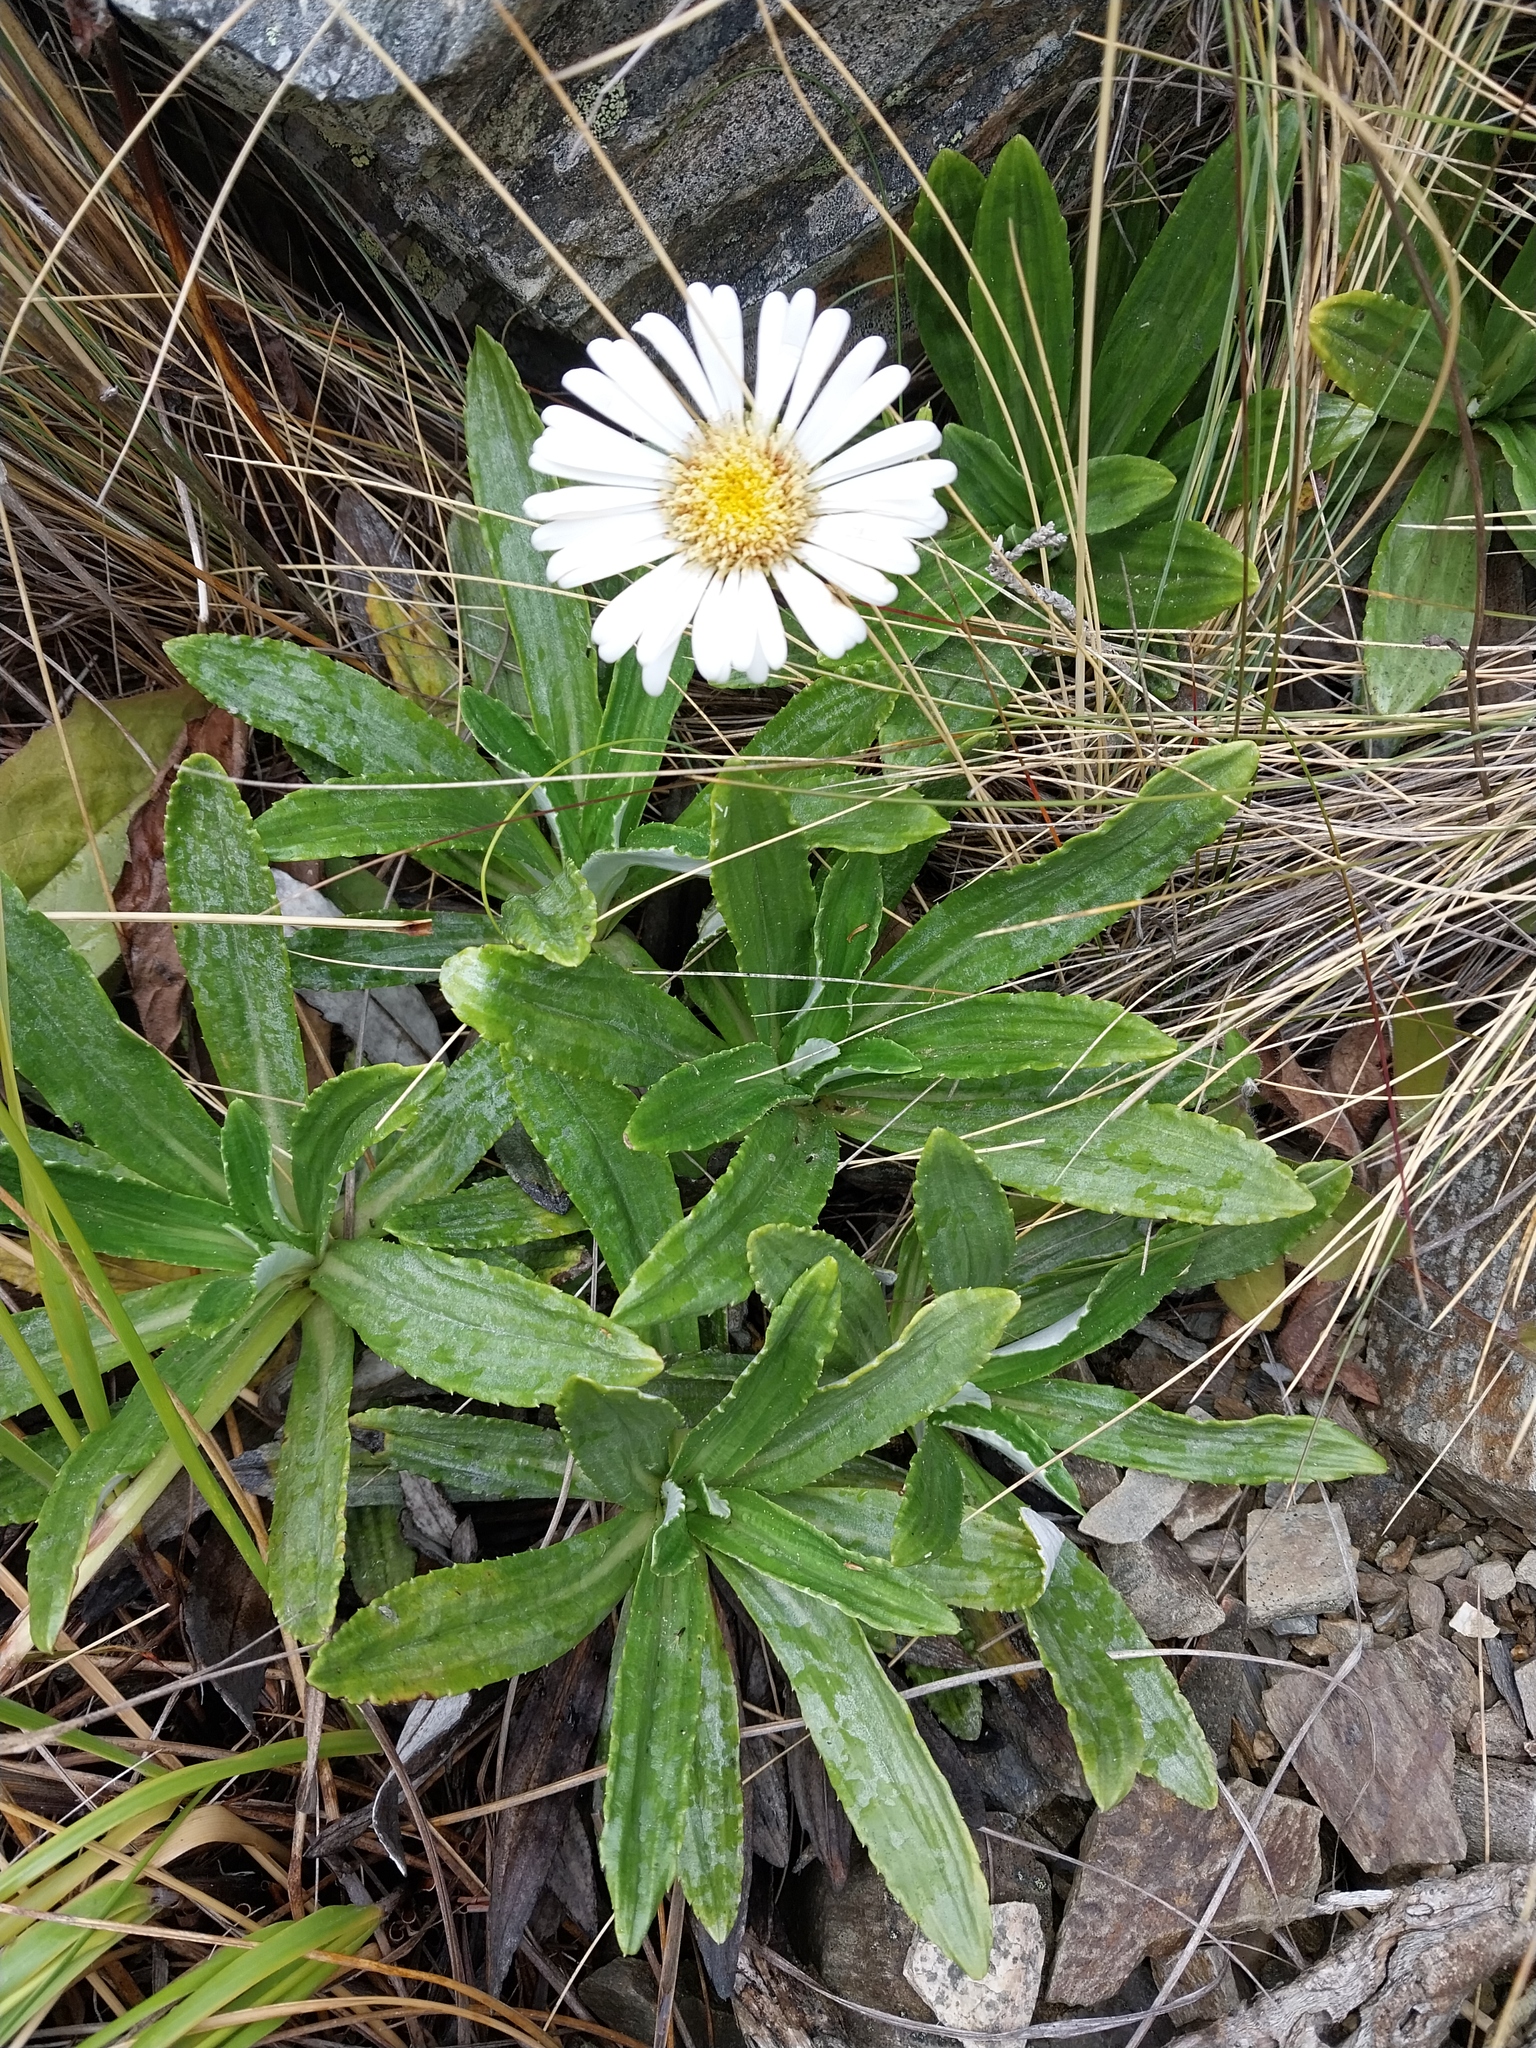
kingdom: Plantae
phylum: Tracheophyta
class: Magnoliopsida
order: Asterales
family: Asteraceae
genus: Celmisia
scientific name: Celmisia densiflora
